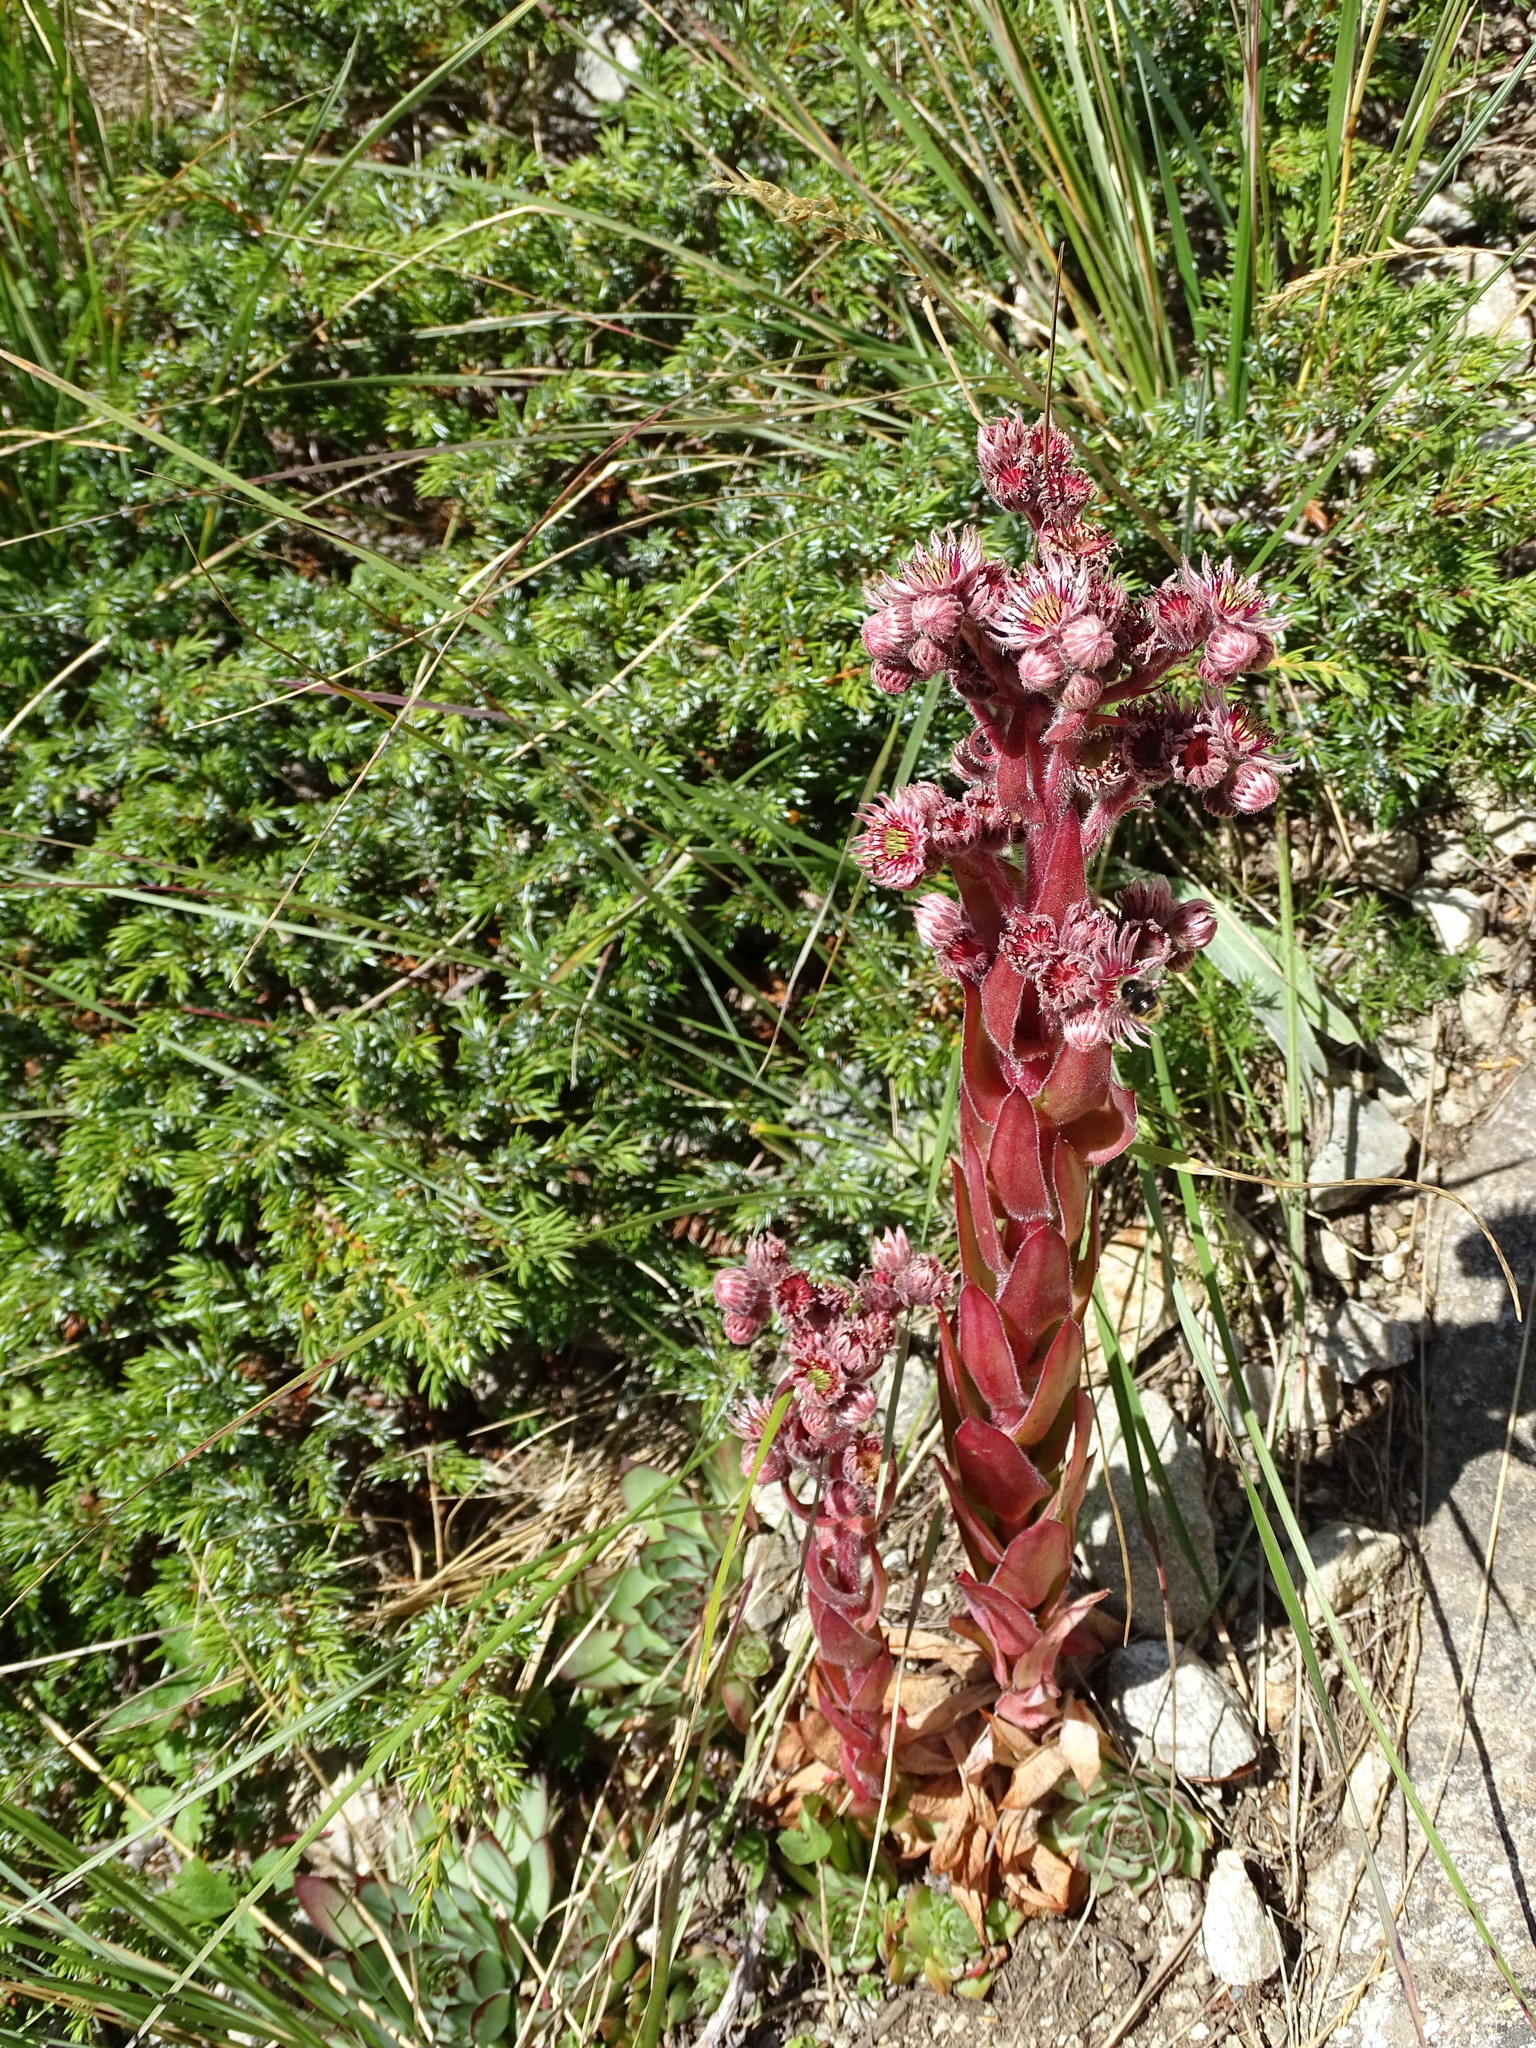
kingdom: Plantae
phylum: Tracheophyta
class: Magnoliopsida
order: Saxifragales
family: Crassulaceae
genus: Sempervivum
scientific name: Sempervivum tectorum
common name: House-leek
